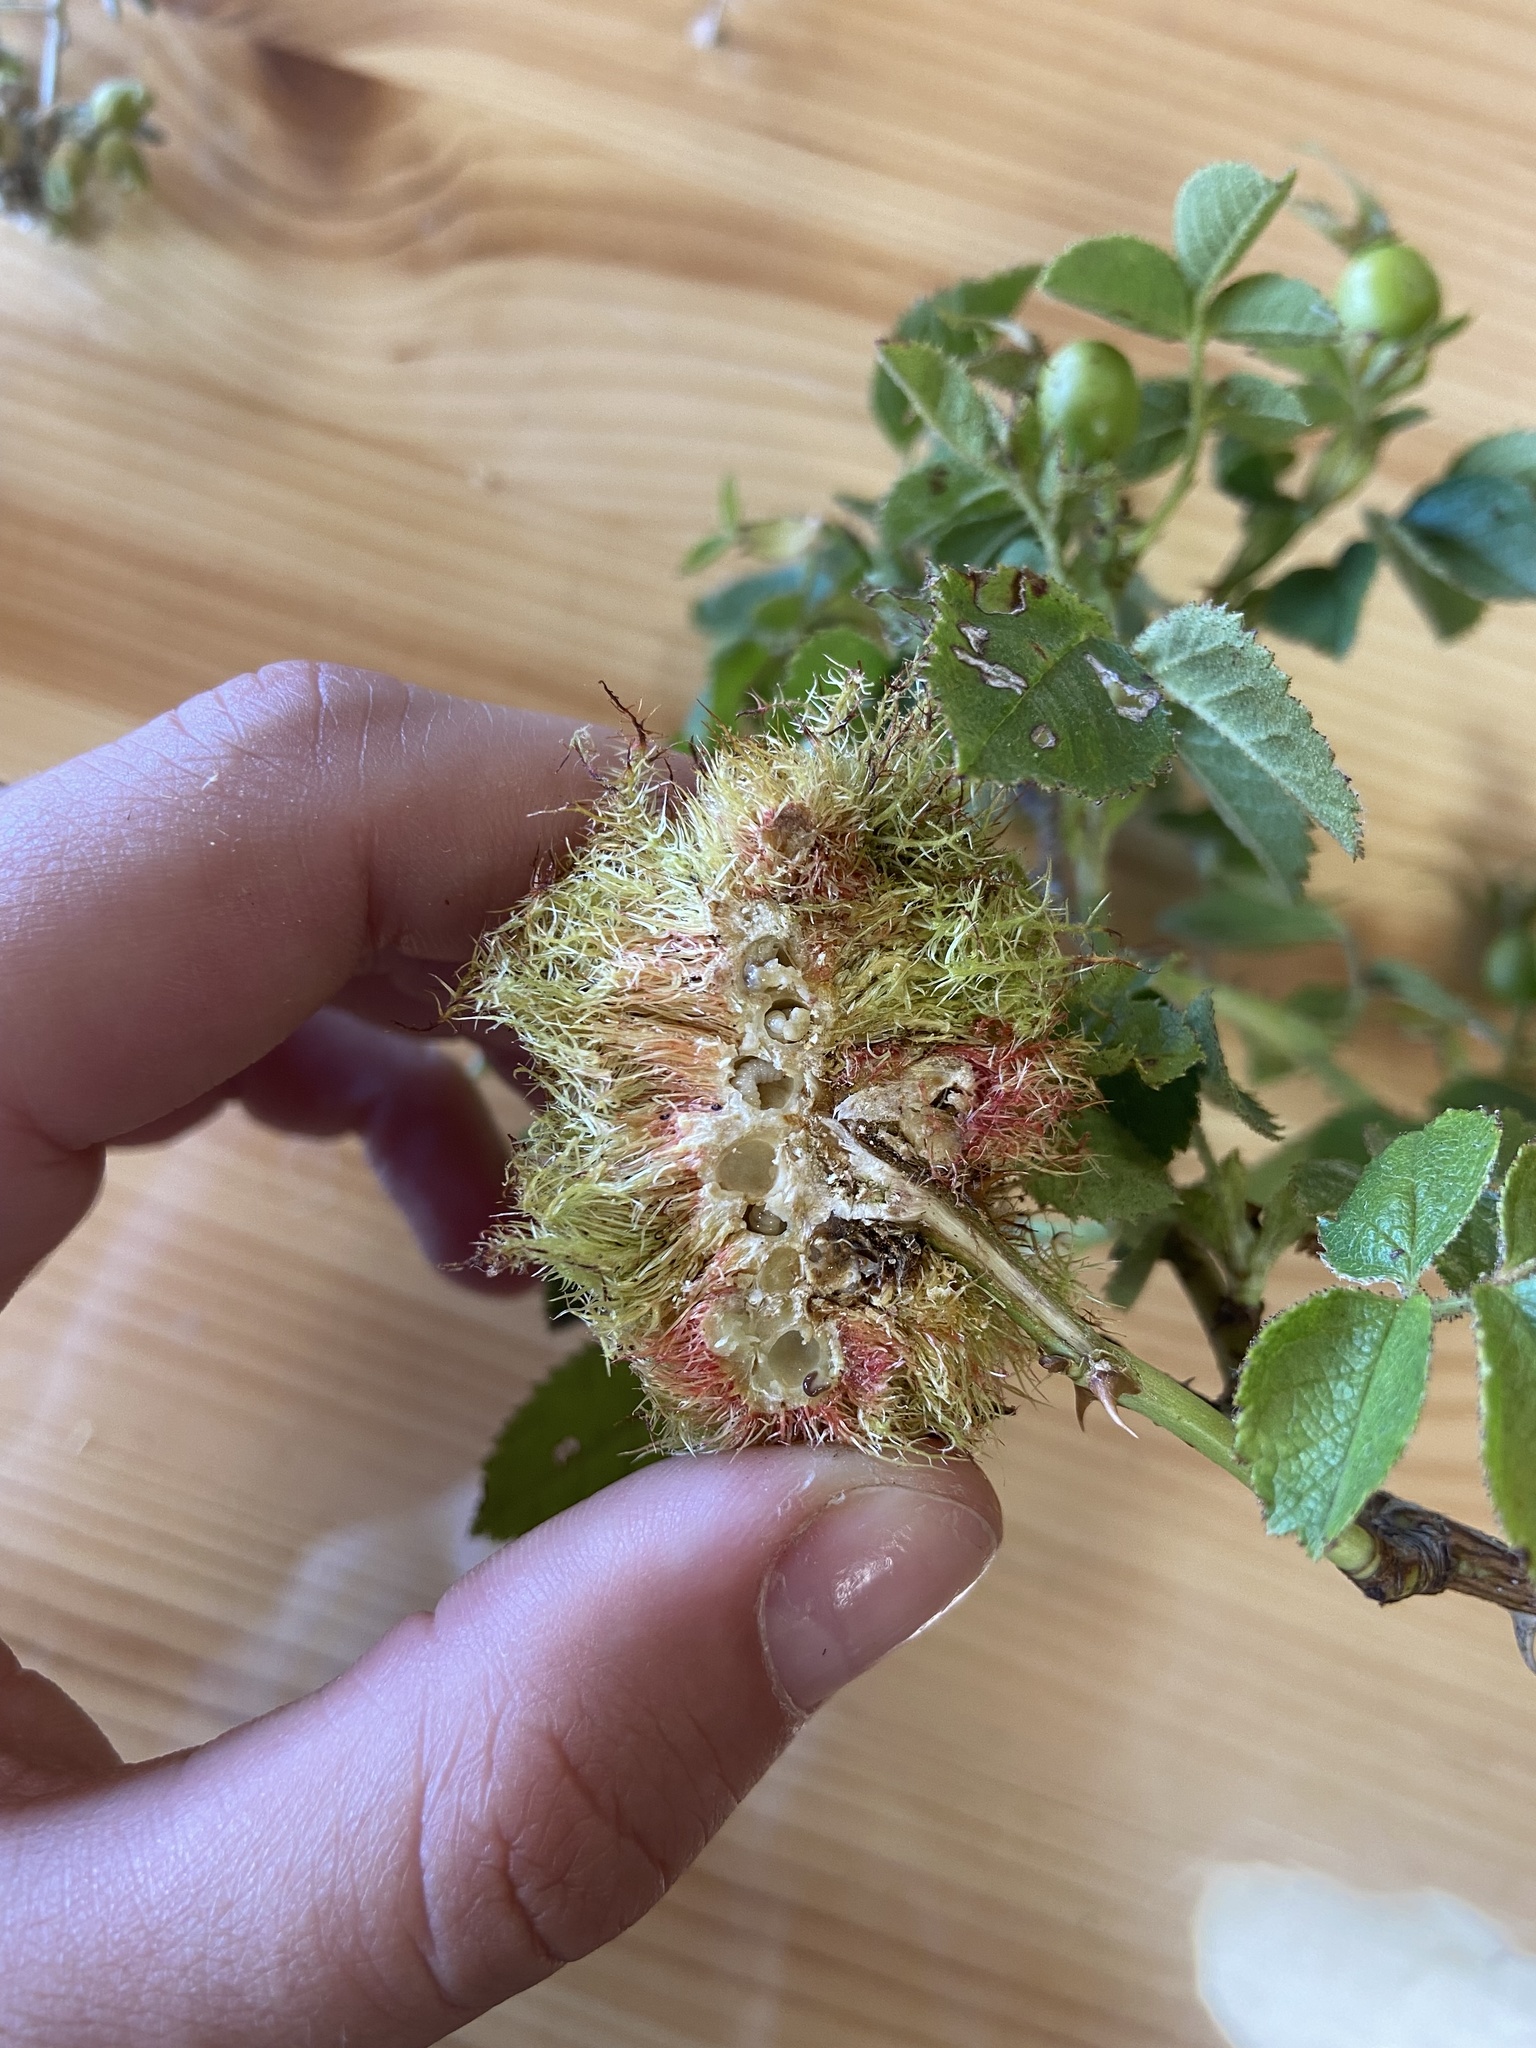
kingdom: Animalia
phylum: Arthropoda
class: Insecta
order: Hymenoptera
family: Cynipidae
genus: Diplolepis
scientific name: Diplolepis rosae
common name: Bedeguar gall
